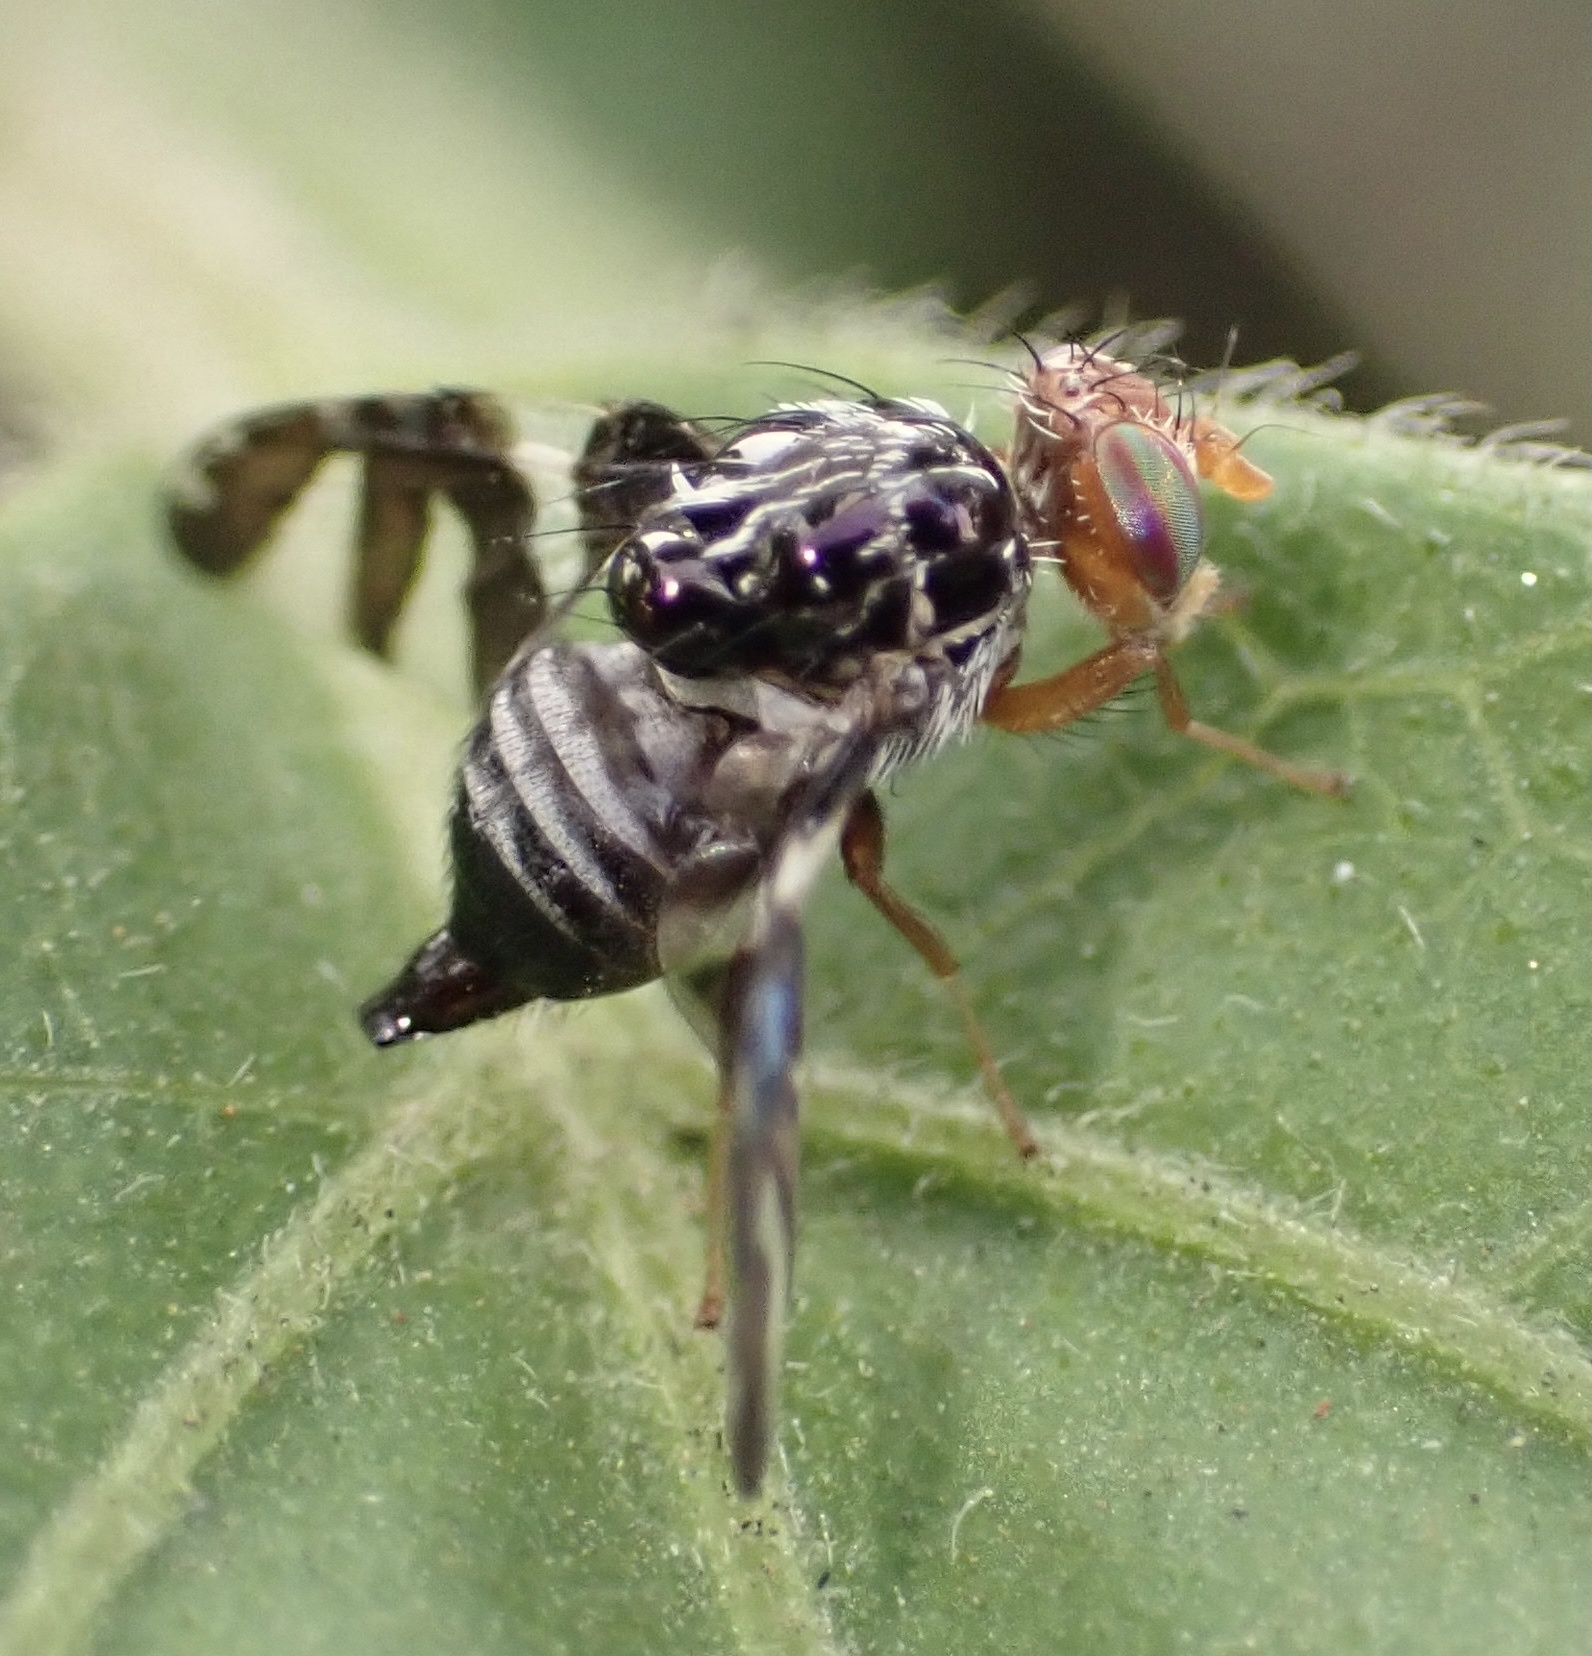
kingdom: Animalia
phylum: Arthropoda
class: Insecta
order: Diptera
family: Tephritidae
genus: Cecidochares
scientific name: Cecidochares connexa
